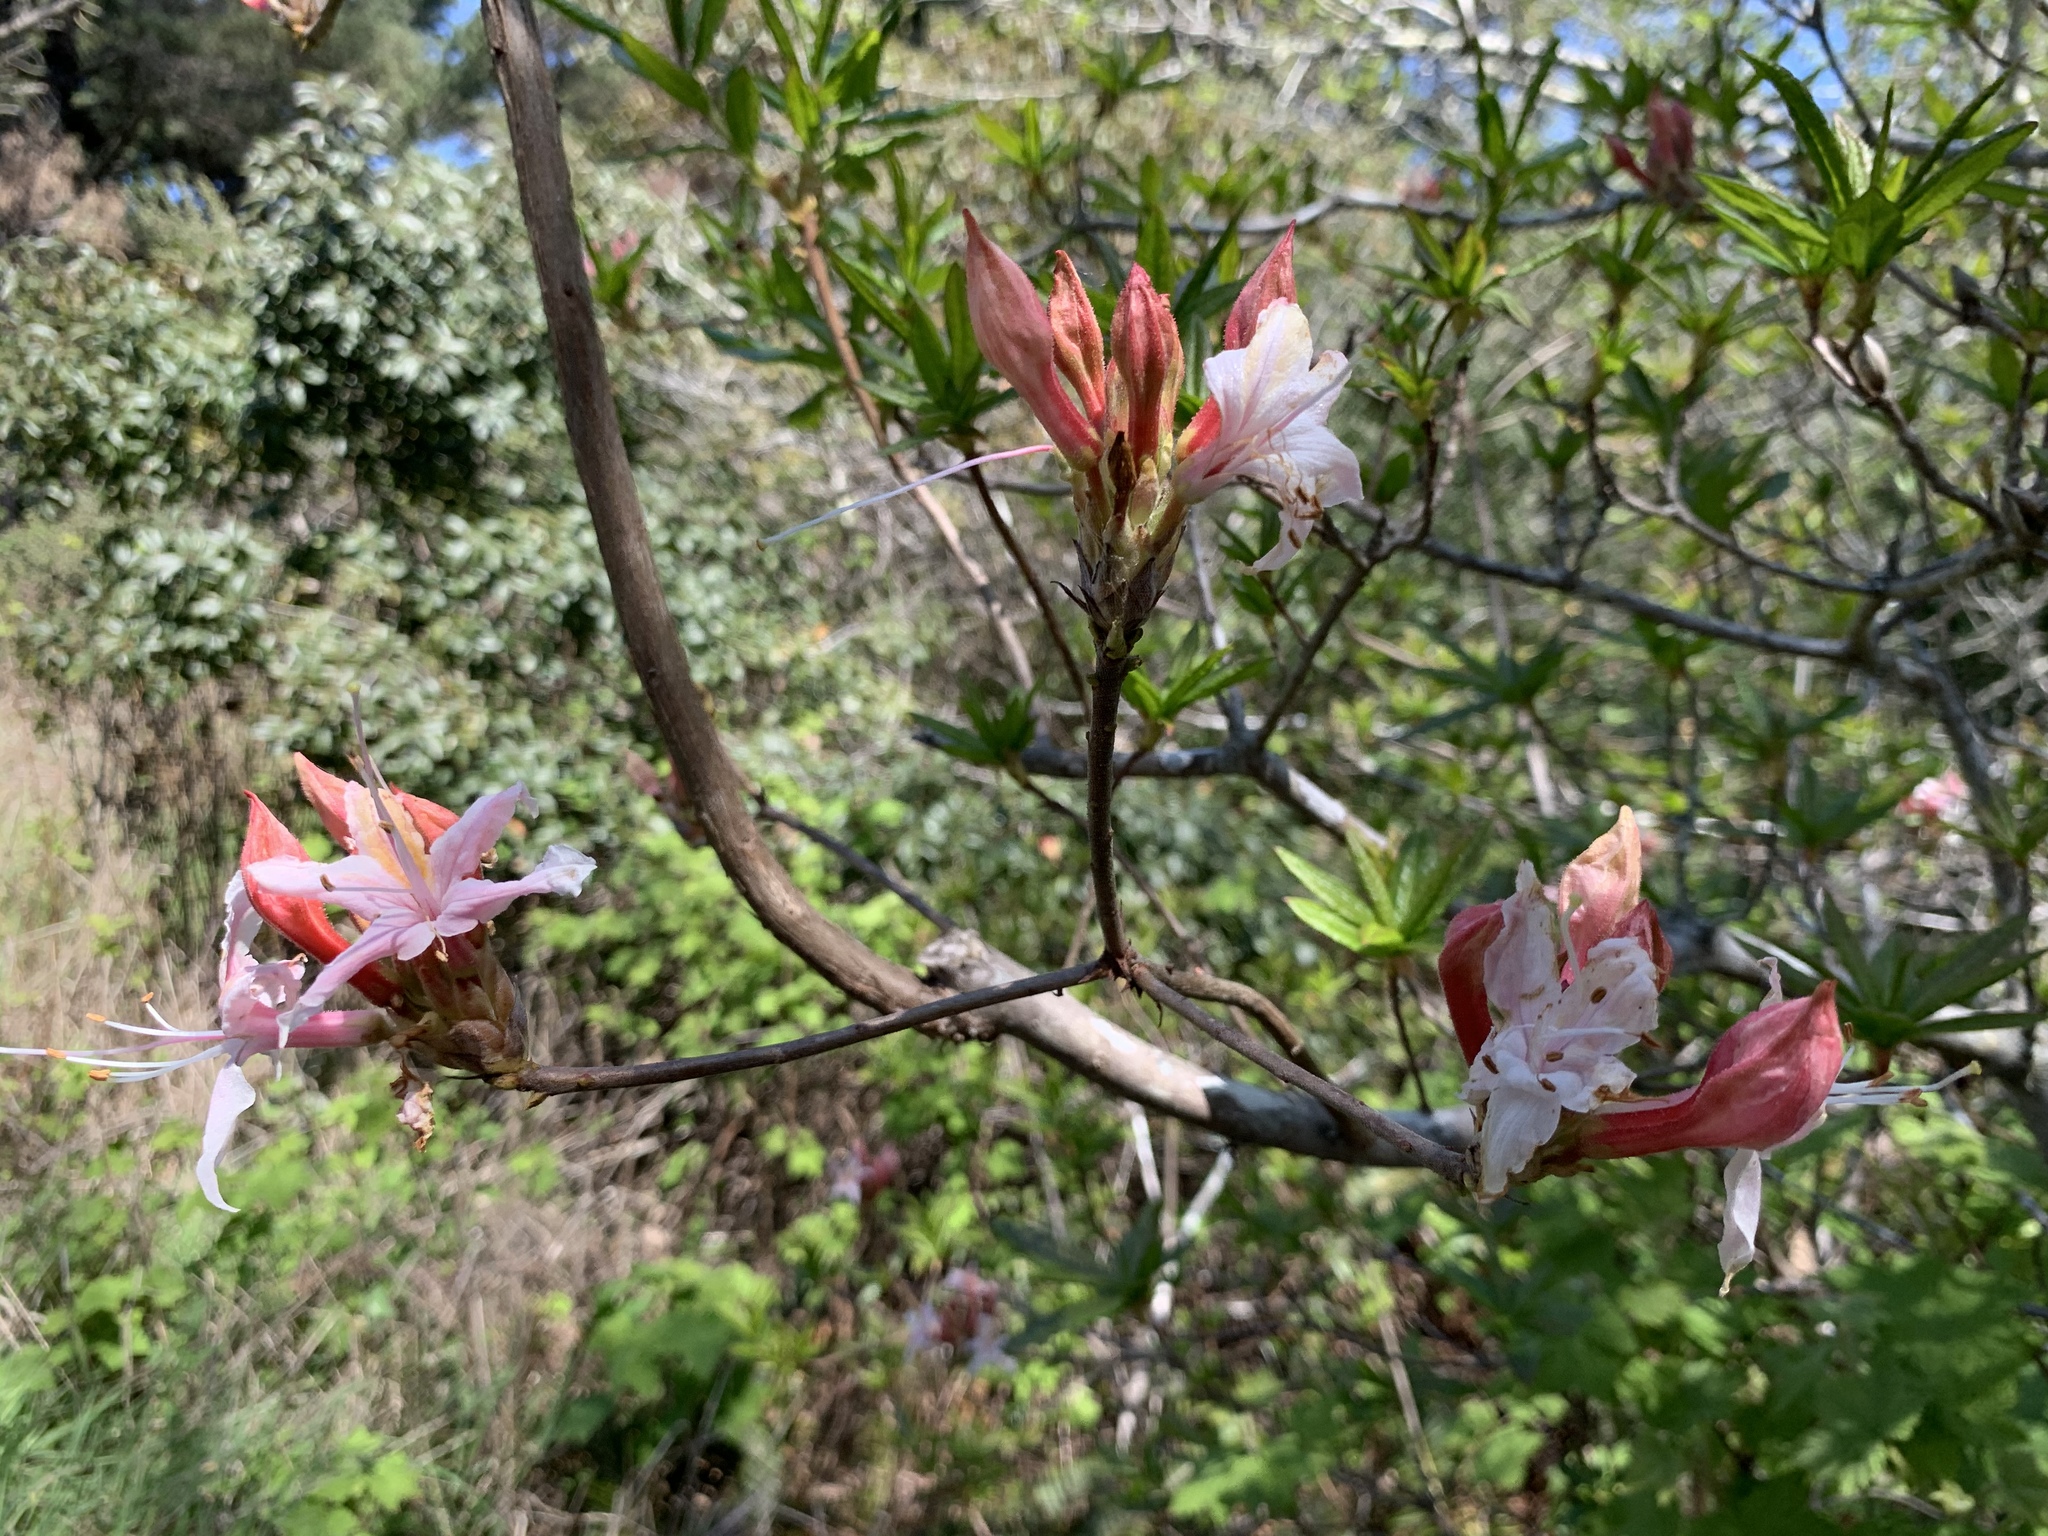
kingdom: Plantae
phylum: Tracheophyta
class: Magnoliopsida
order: Ericales
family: Ericaceae
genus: Rhododendron
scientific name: Rhododendron occidentale
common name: Western azalea
